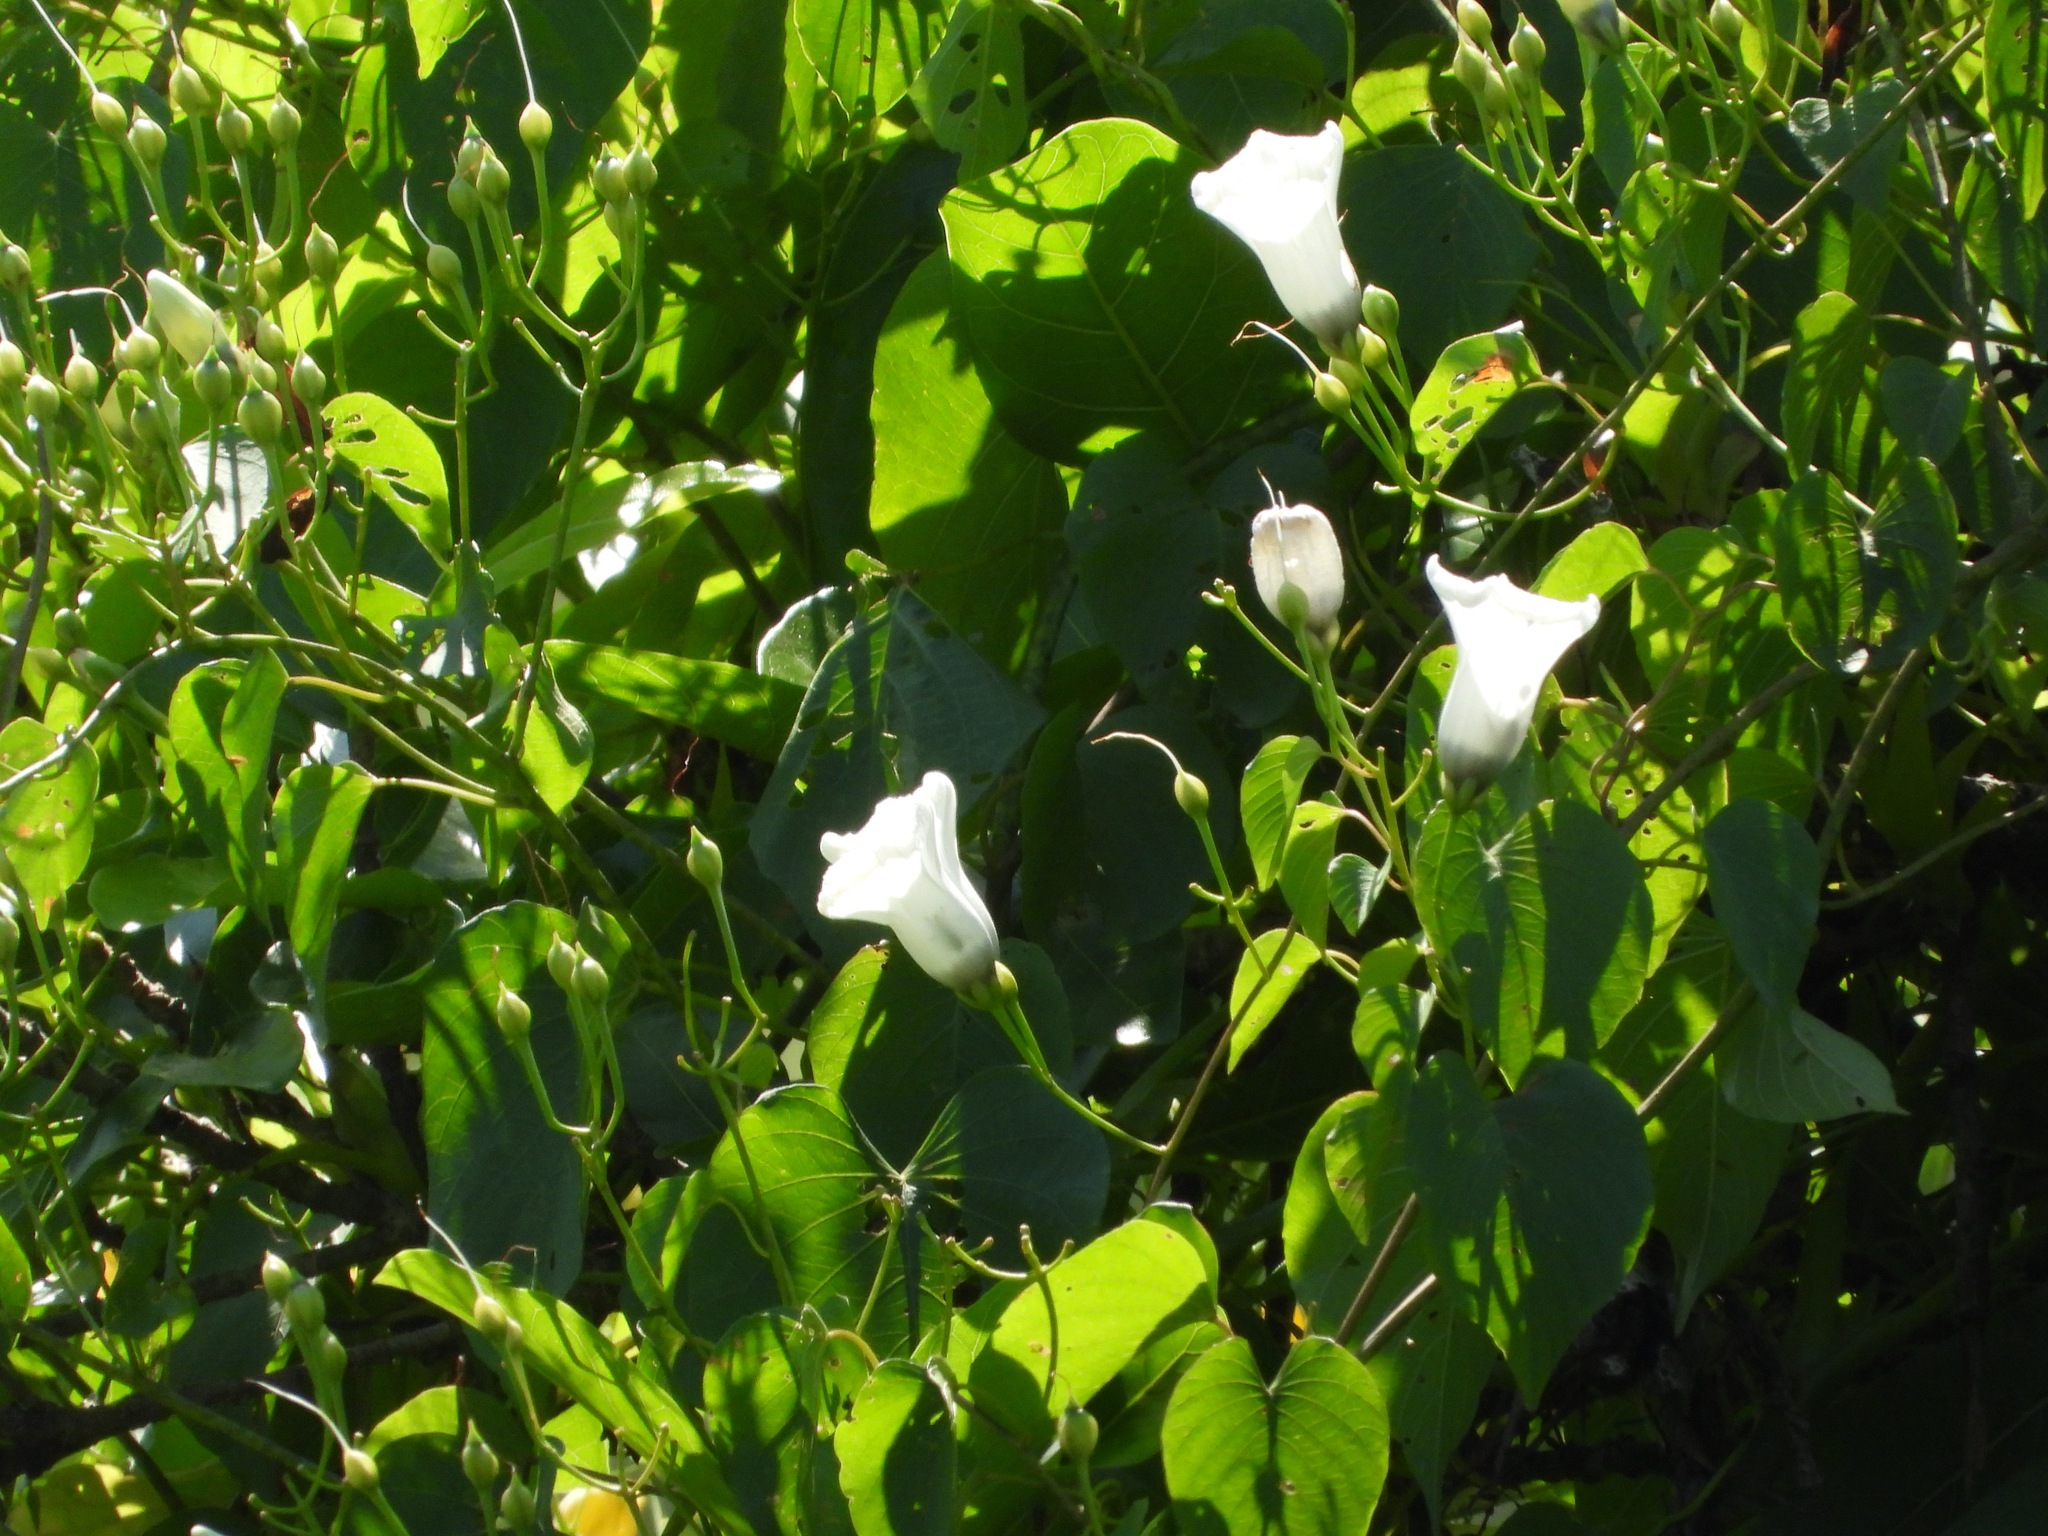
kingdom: Plantae
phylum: Tracheophyta
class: Magnoliopsida
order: Solanales
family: Convolvulaceae
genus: Ipomoea
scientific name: Ipomoea reticulata
